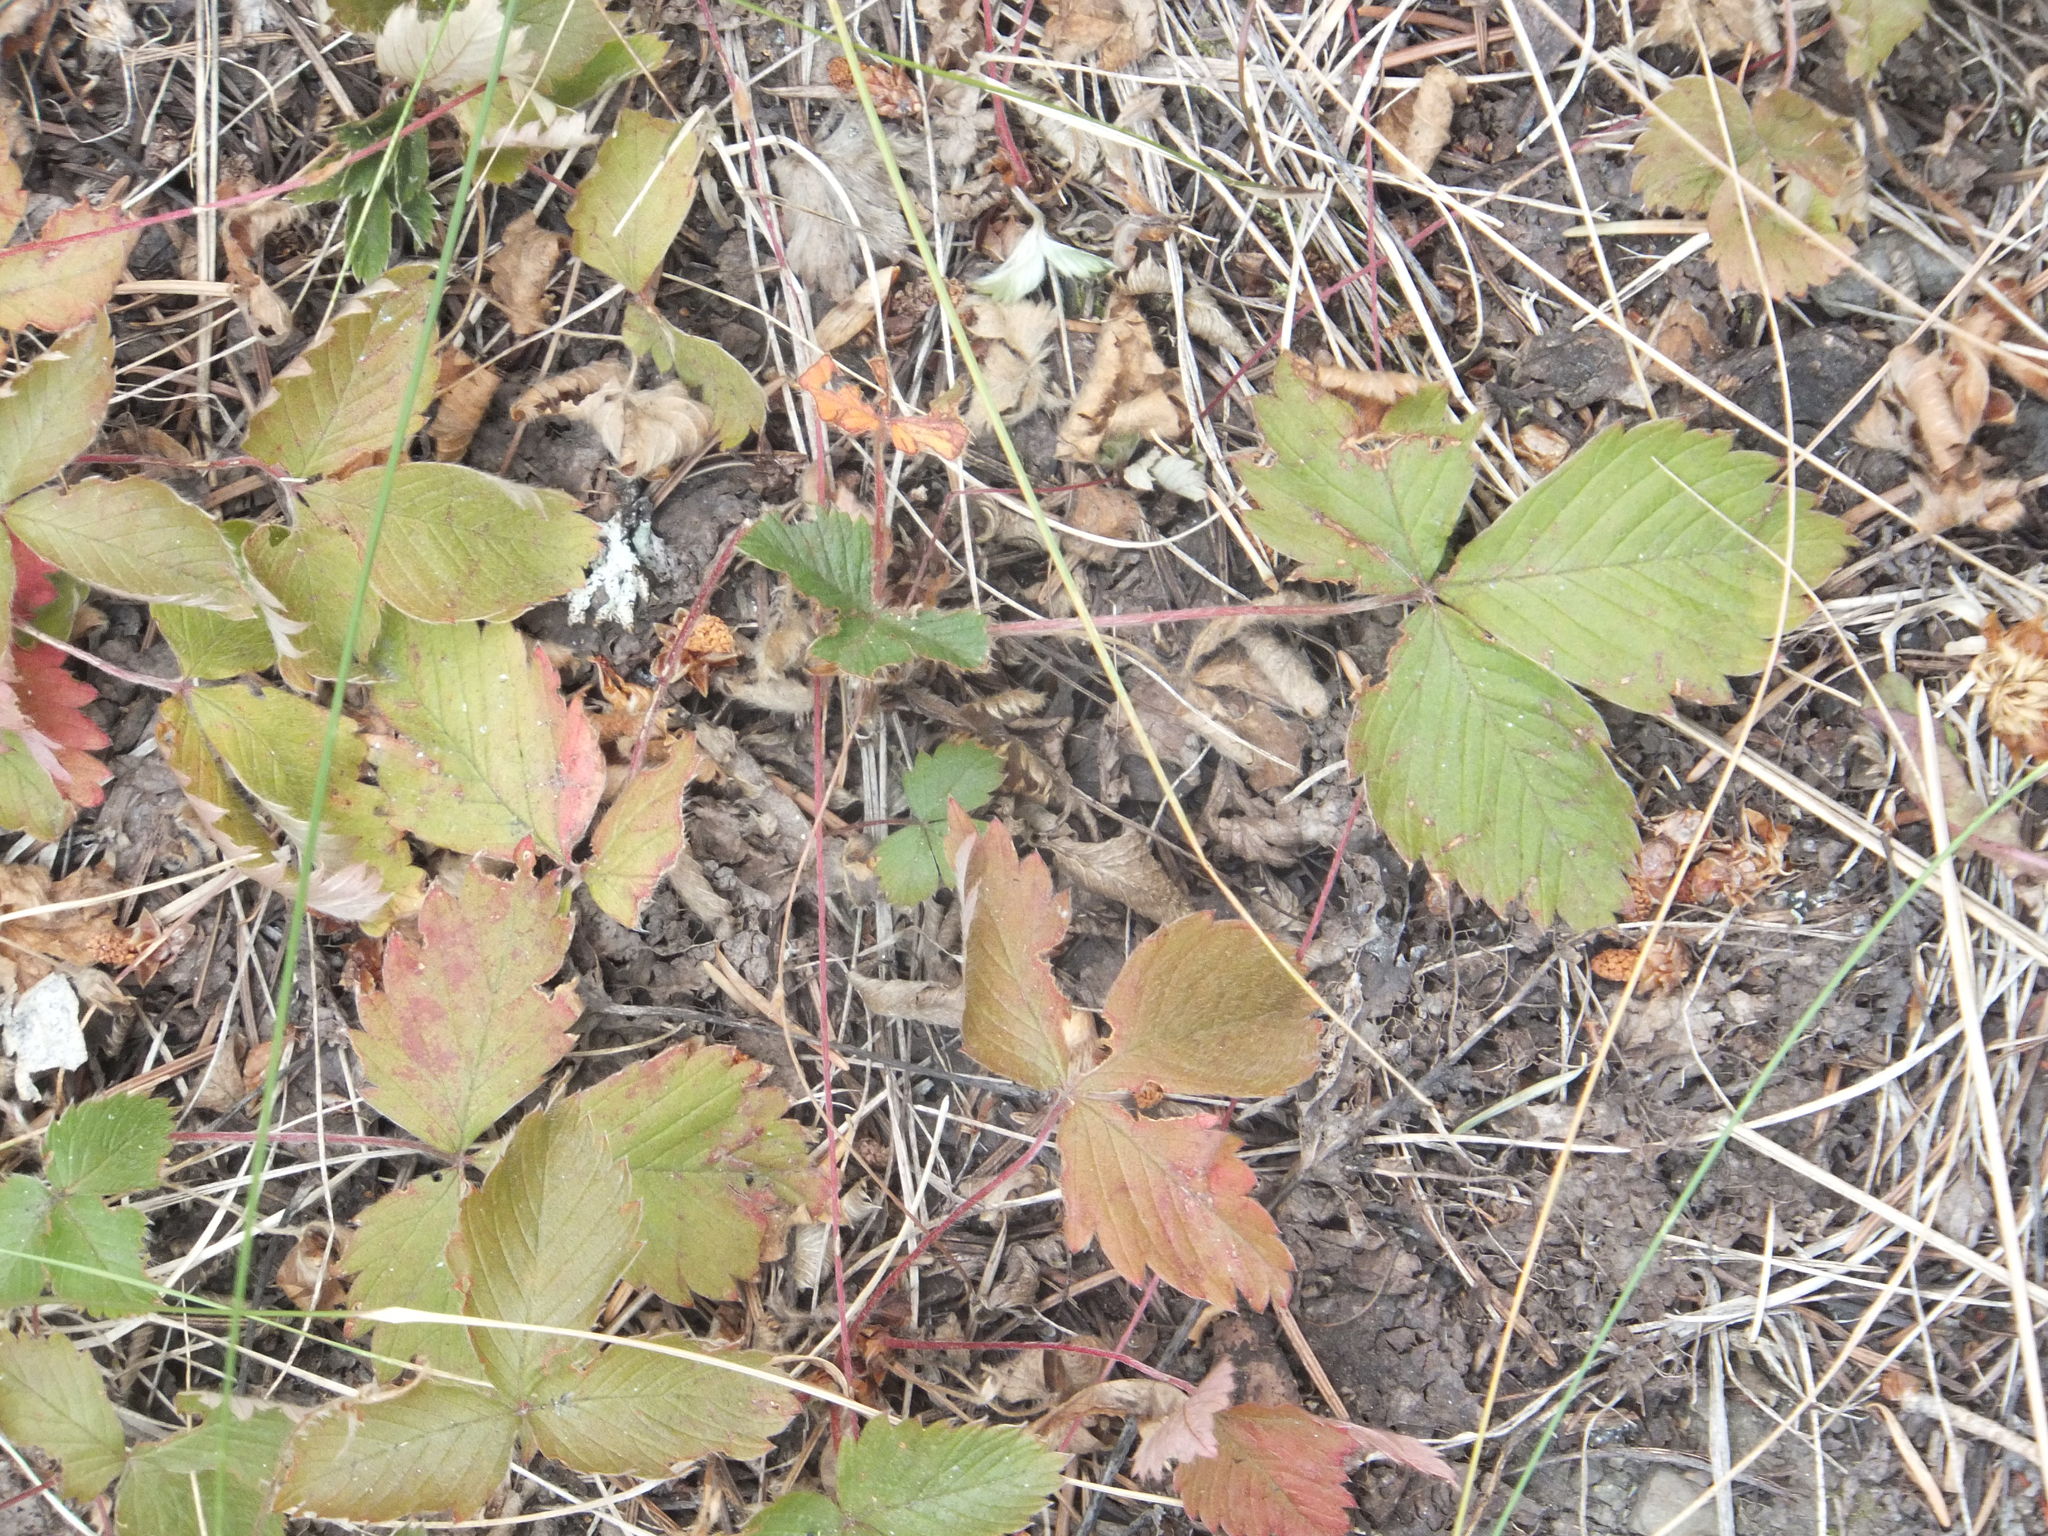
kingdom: Plantae
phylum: Tracheophyta
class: Magnoliopsida
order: Rosales
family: Rosaceae
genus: Fragaria
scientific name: Fragaria virginiana
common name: Thickleaved wild strawberry
